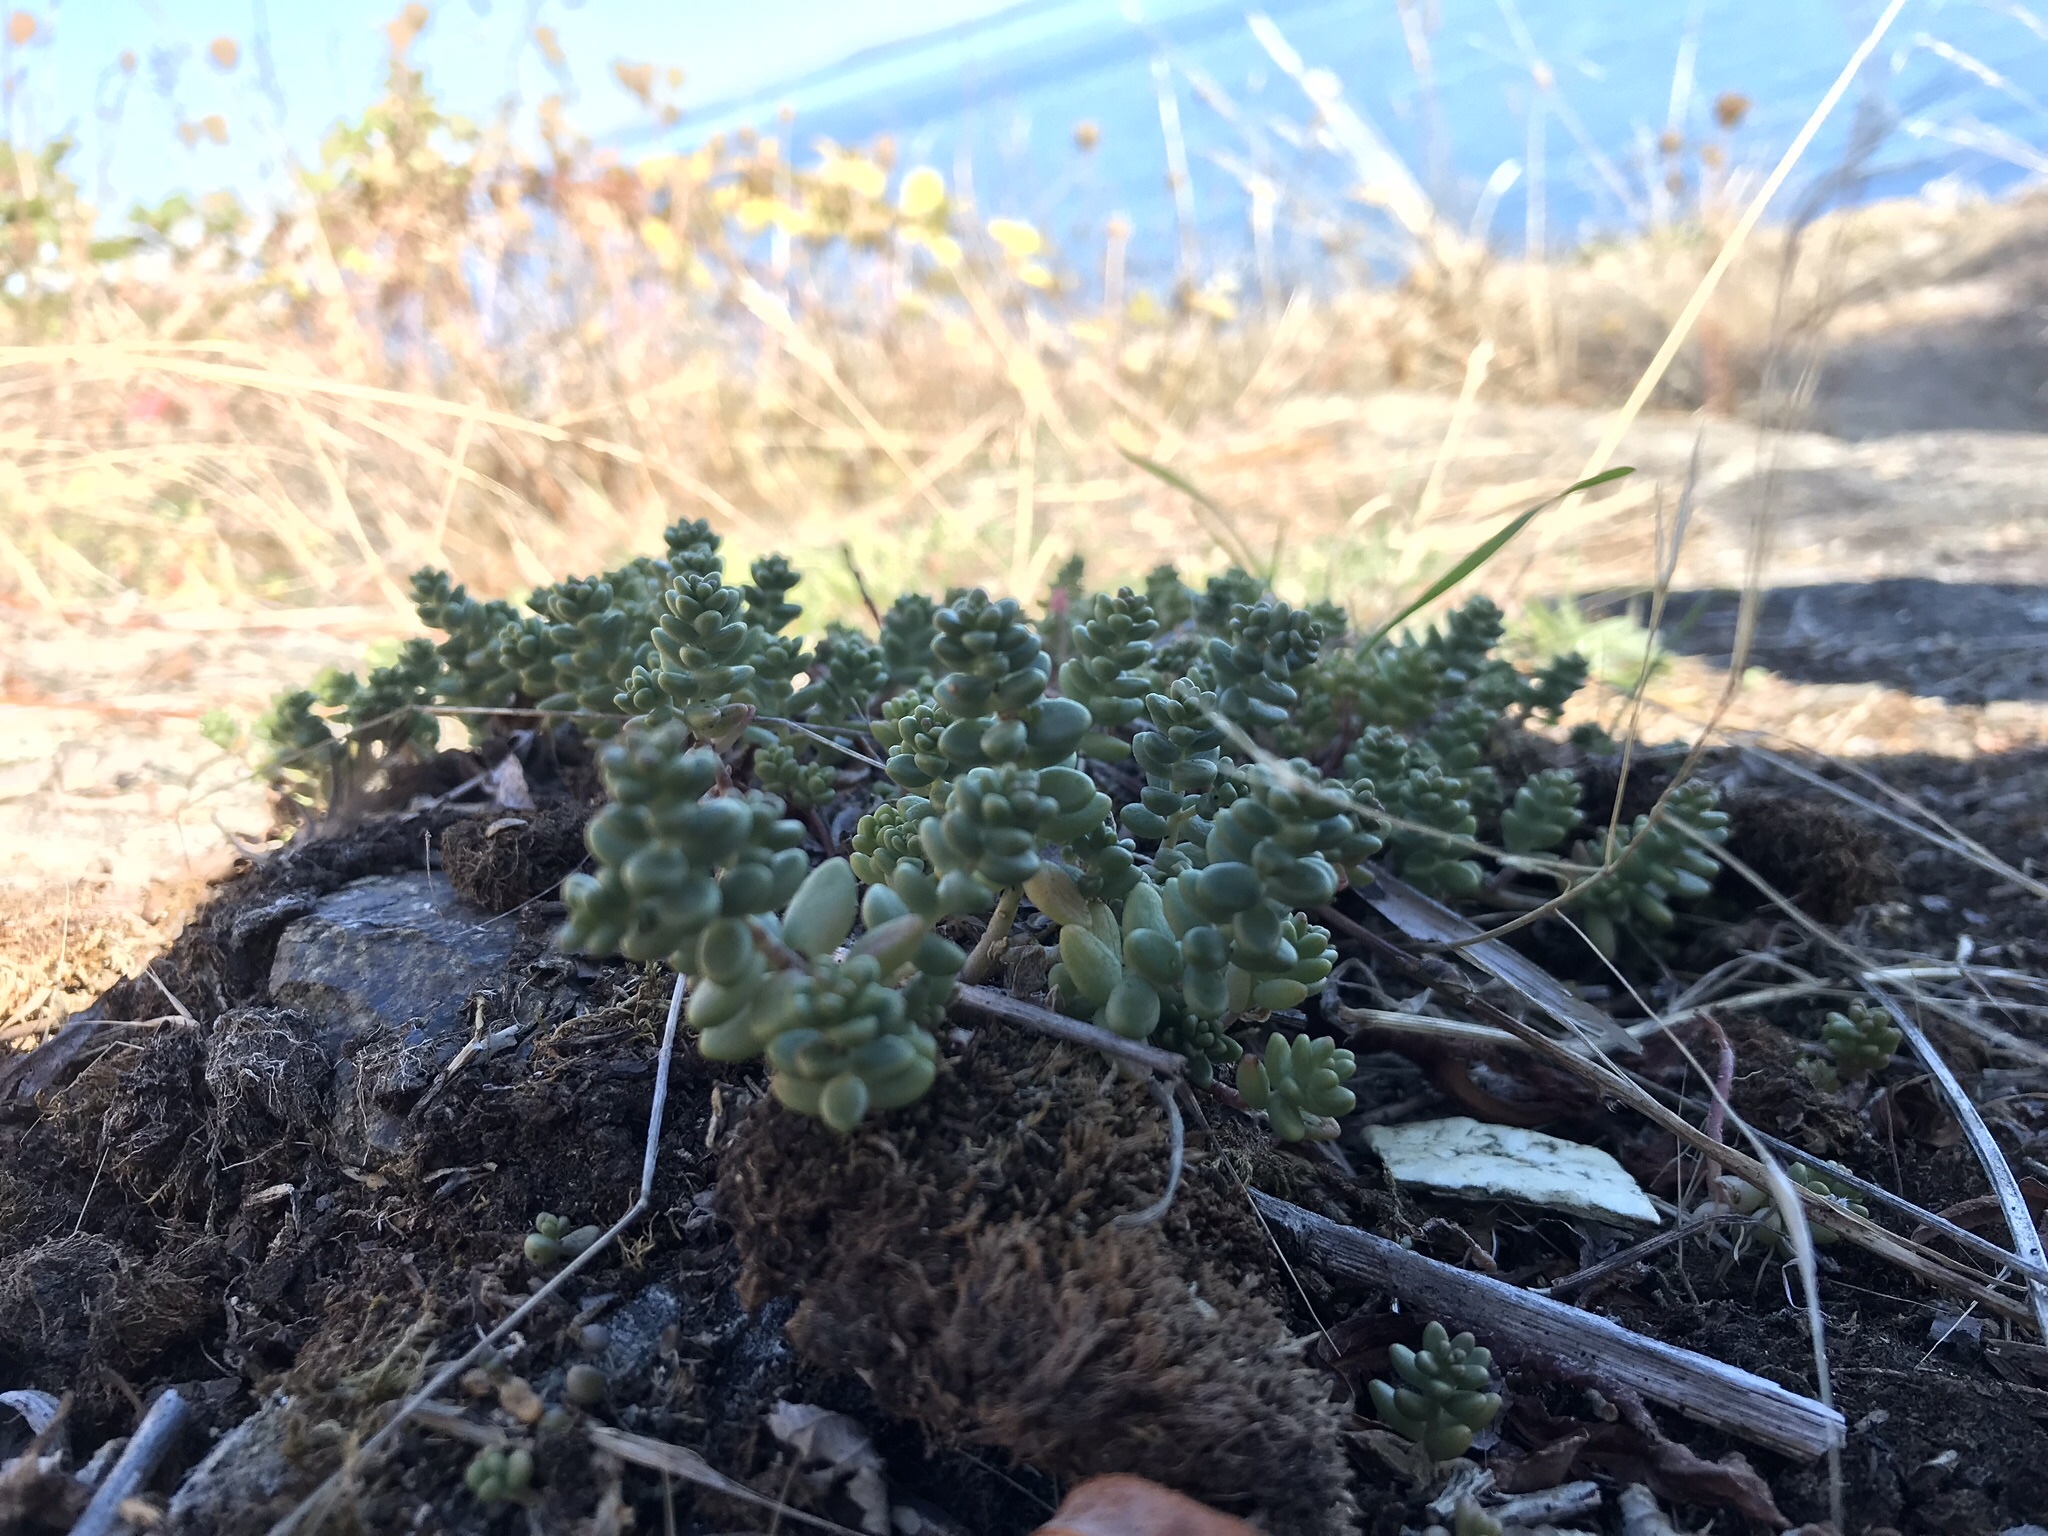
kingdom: Plantae
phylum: Tracheophyta
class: Magnoliopsida
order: Saxifragales
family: Crassulaceae
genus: Sedum
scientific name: Sedum album
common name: White stonecrop
